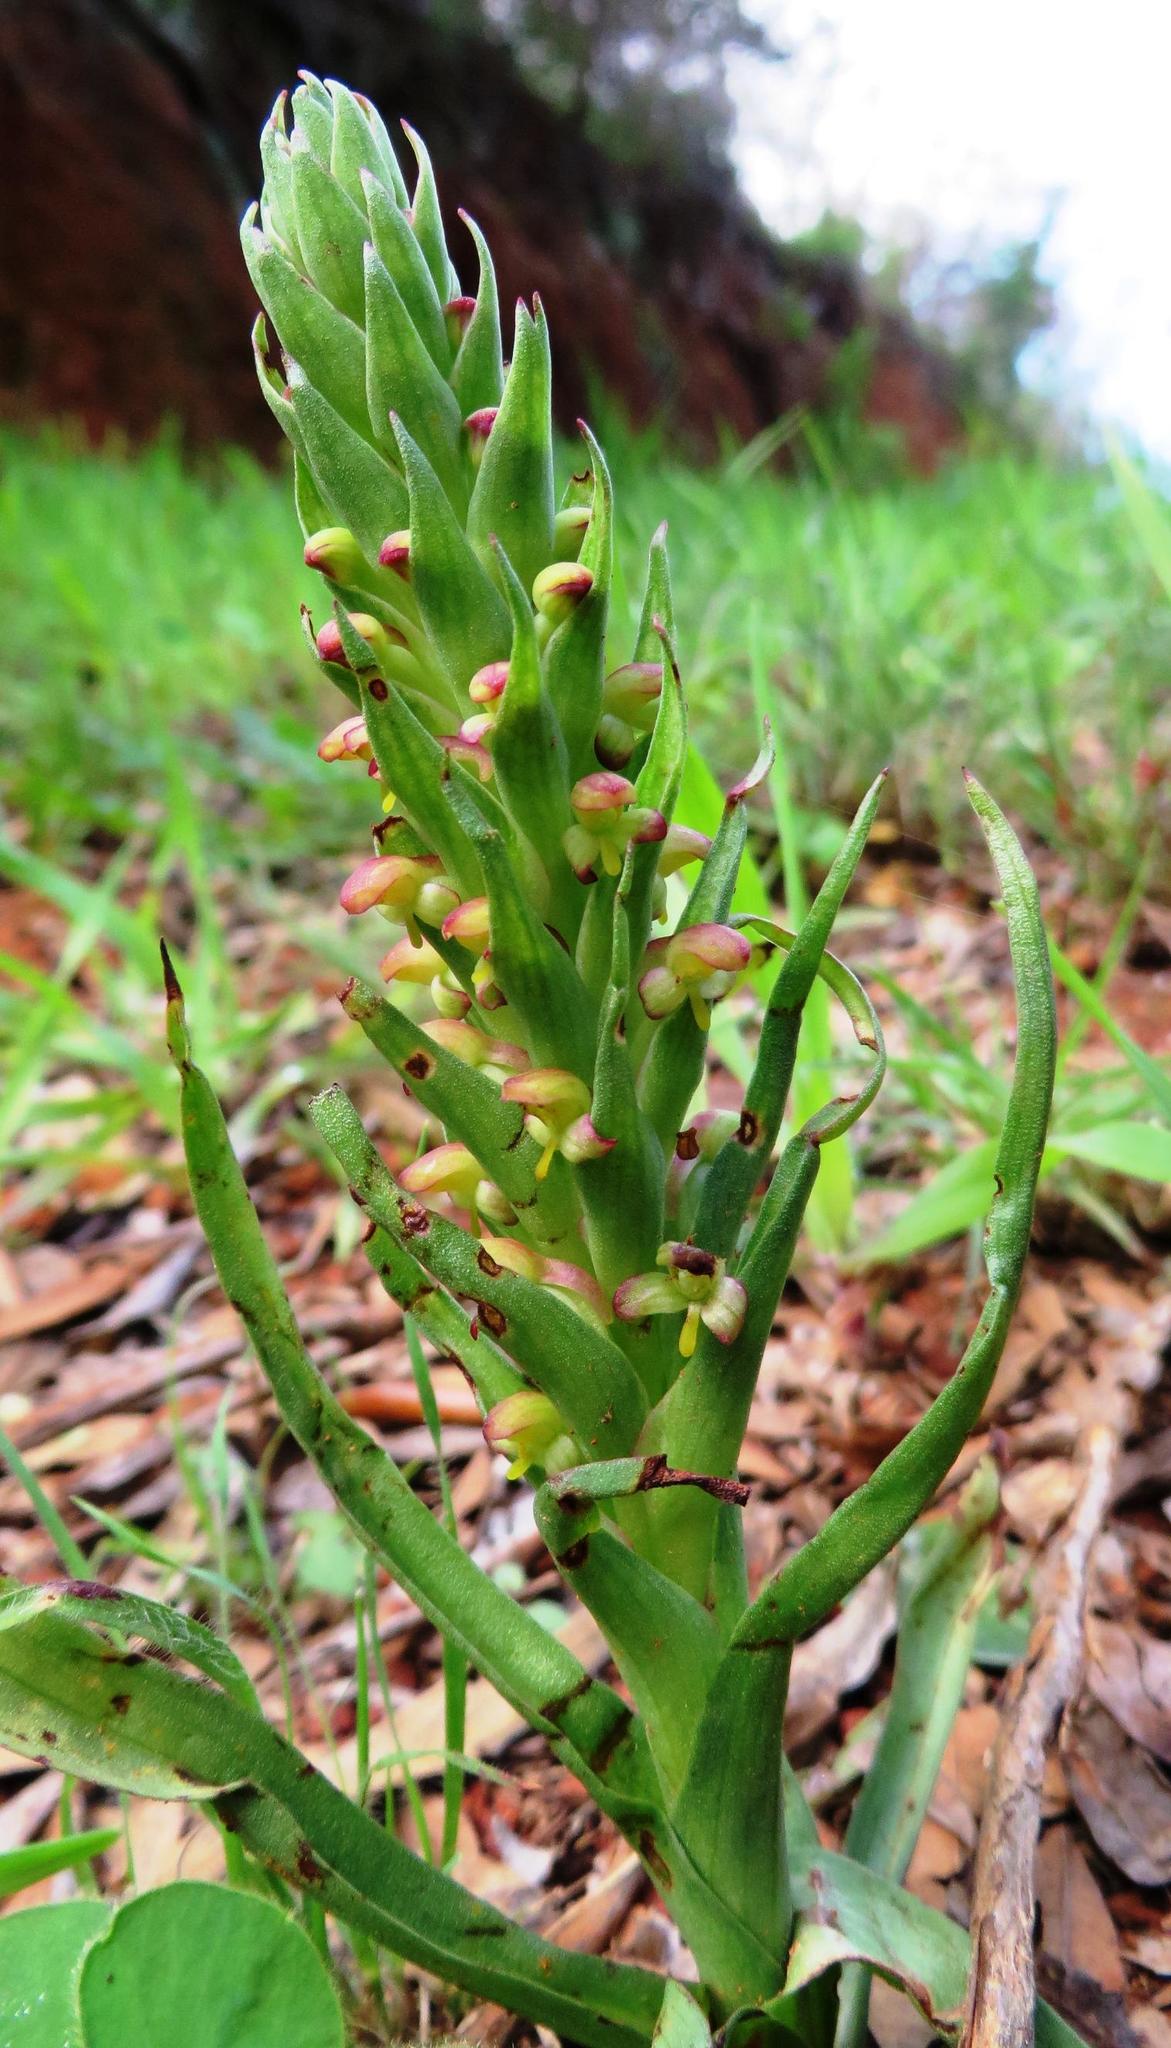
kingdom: Plantae
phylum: Tracheophyta
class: Liliopsida
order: Asparagales
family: Orchidaceae
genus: Disa
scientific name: Disa bracteata
